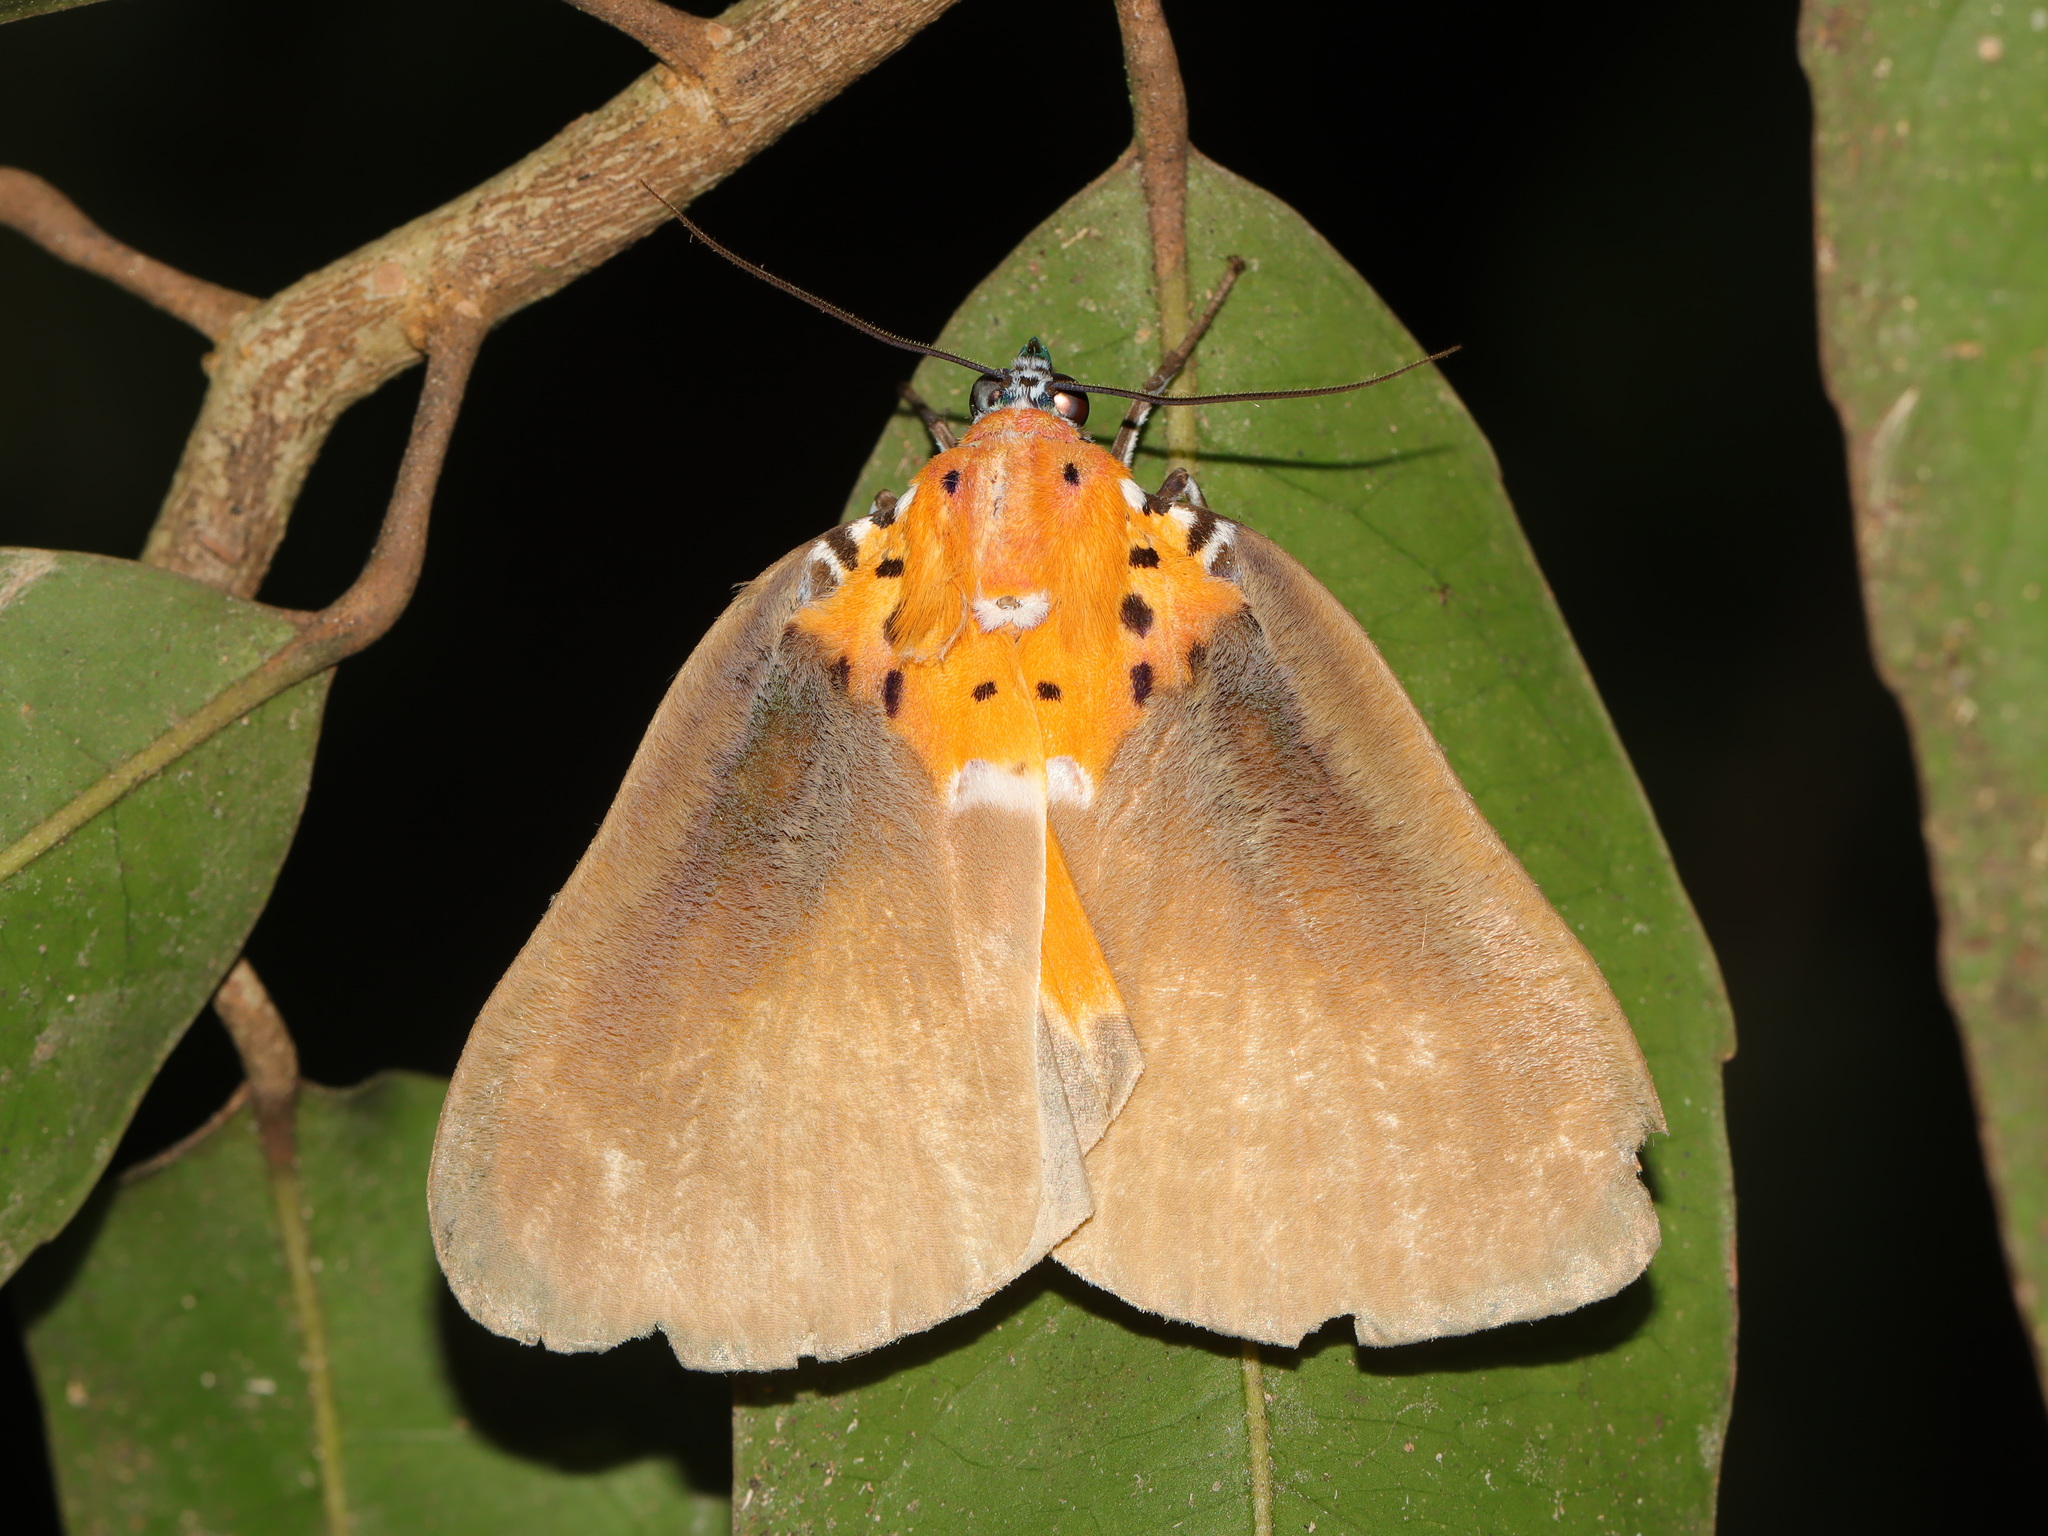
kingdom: Animalia
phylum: Arthropoda
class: Insecta
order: Lepidoptera
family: Erebidae
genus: Peridrome
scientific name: Peridrome orbicularis
